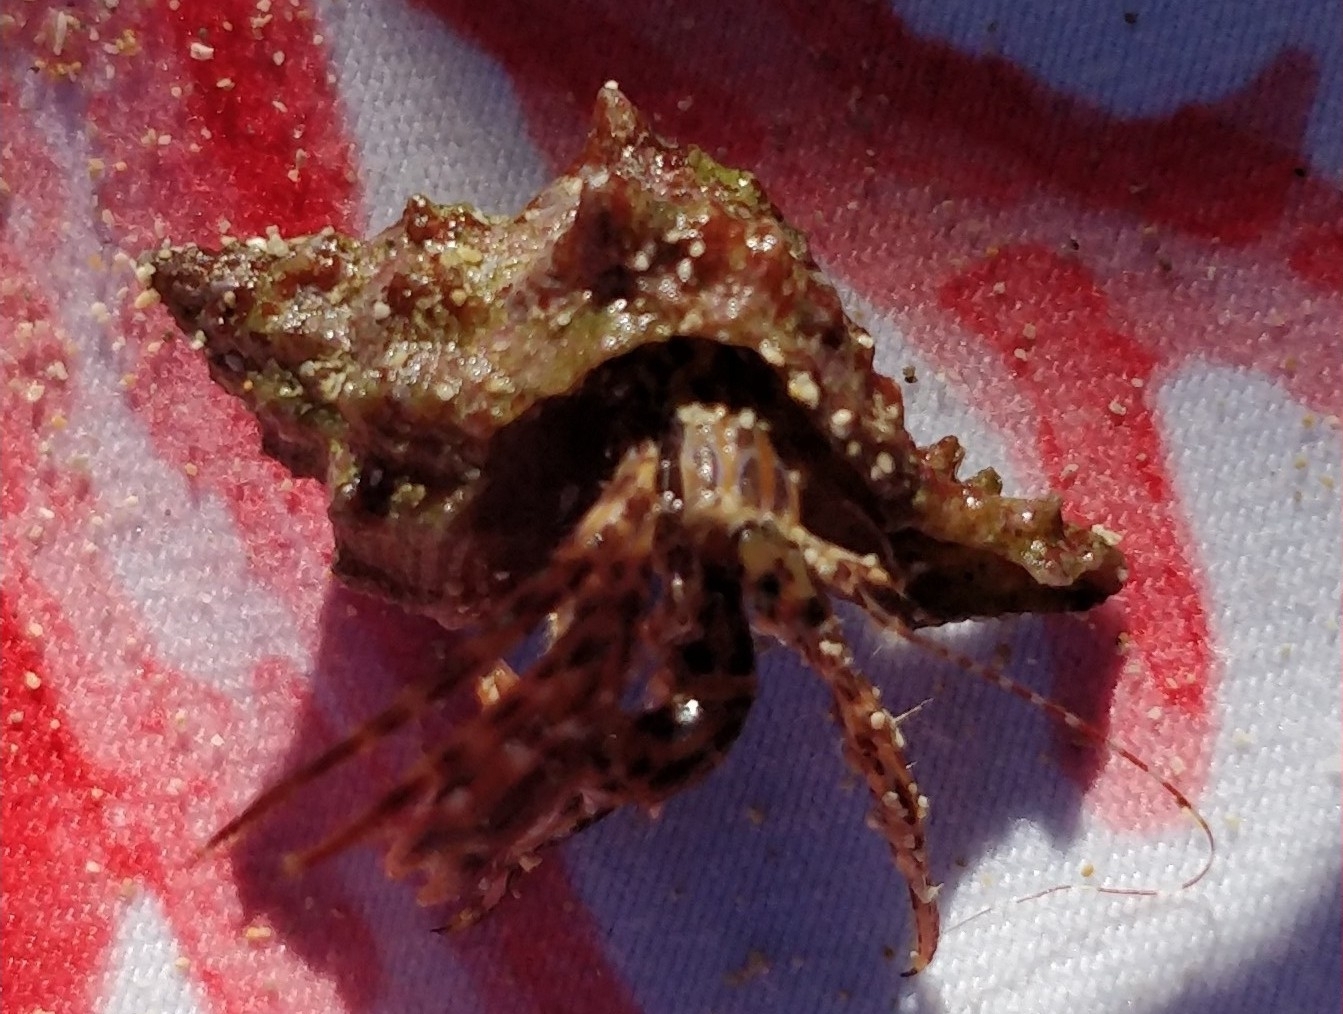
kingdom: Animalia
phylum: Arthropoda
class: Malacostraca
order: Decapoda
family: Paguridae
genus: Pagurus
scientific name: Pagurus anachoretus
